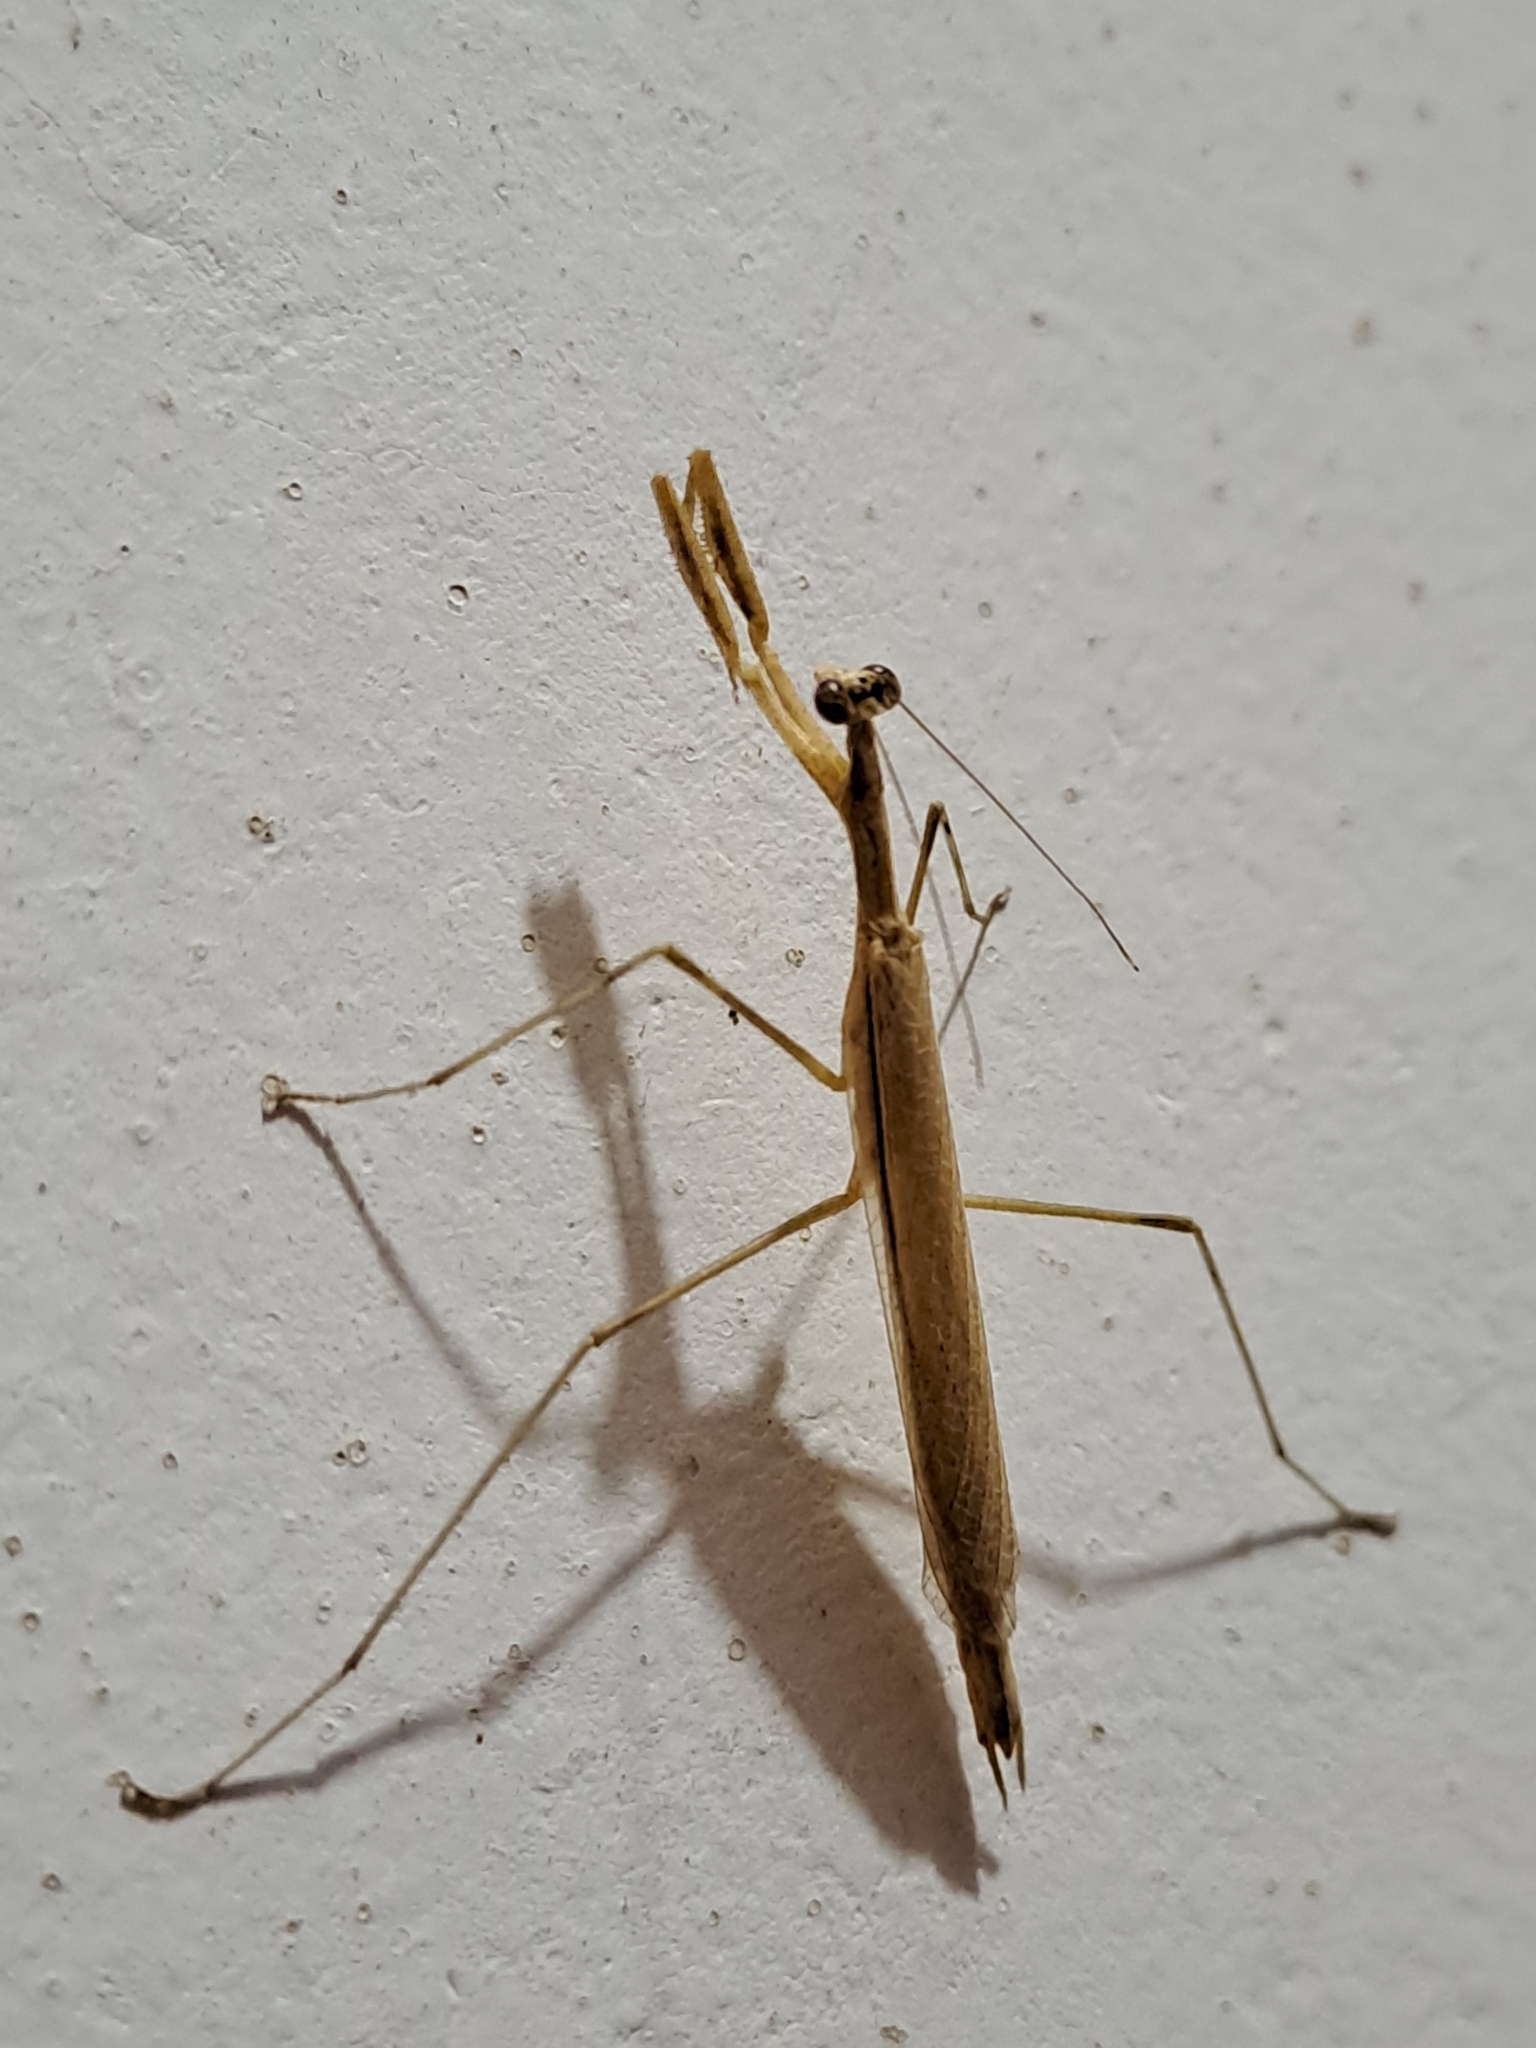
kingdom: Animalia
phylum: Arthropoda
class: Insecta
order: Mantodea
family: Thespidae
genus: Musonia
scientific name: Musonia
